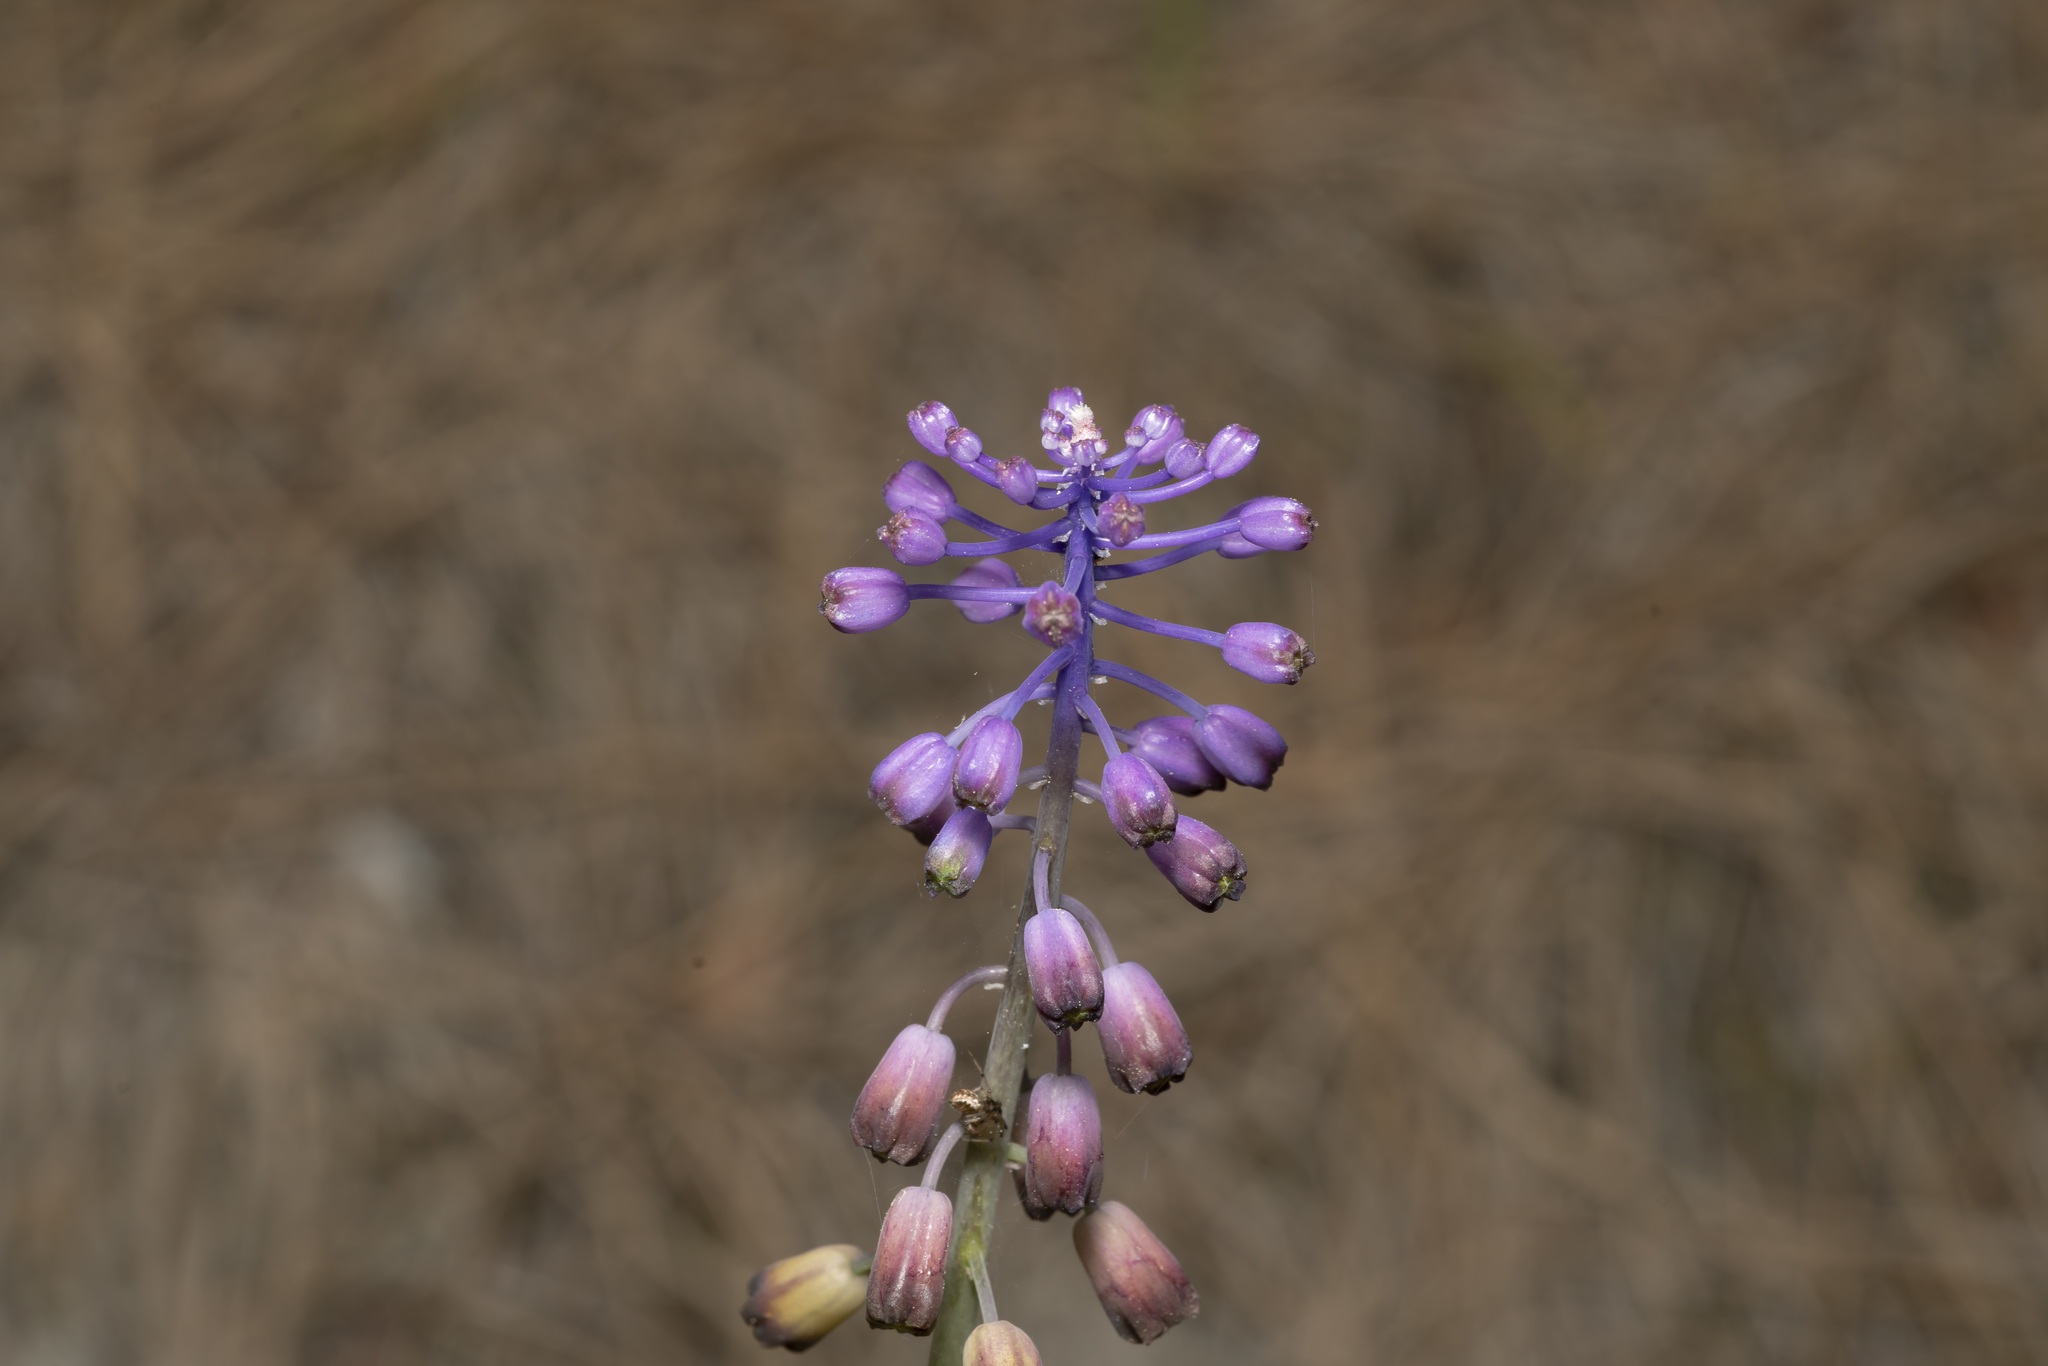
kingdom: Plantae
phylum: Tracheophyta
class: Liliopsida
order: Asparagales
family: Asparagaceae
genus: Muscari
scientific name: Muscari weissii
